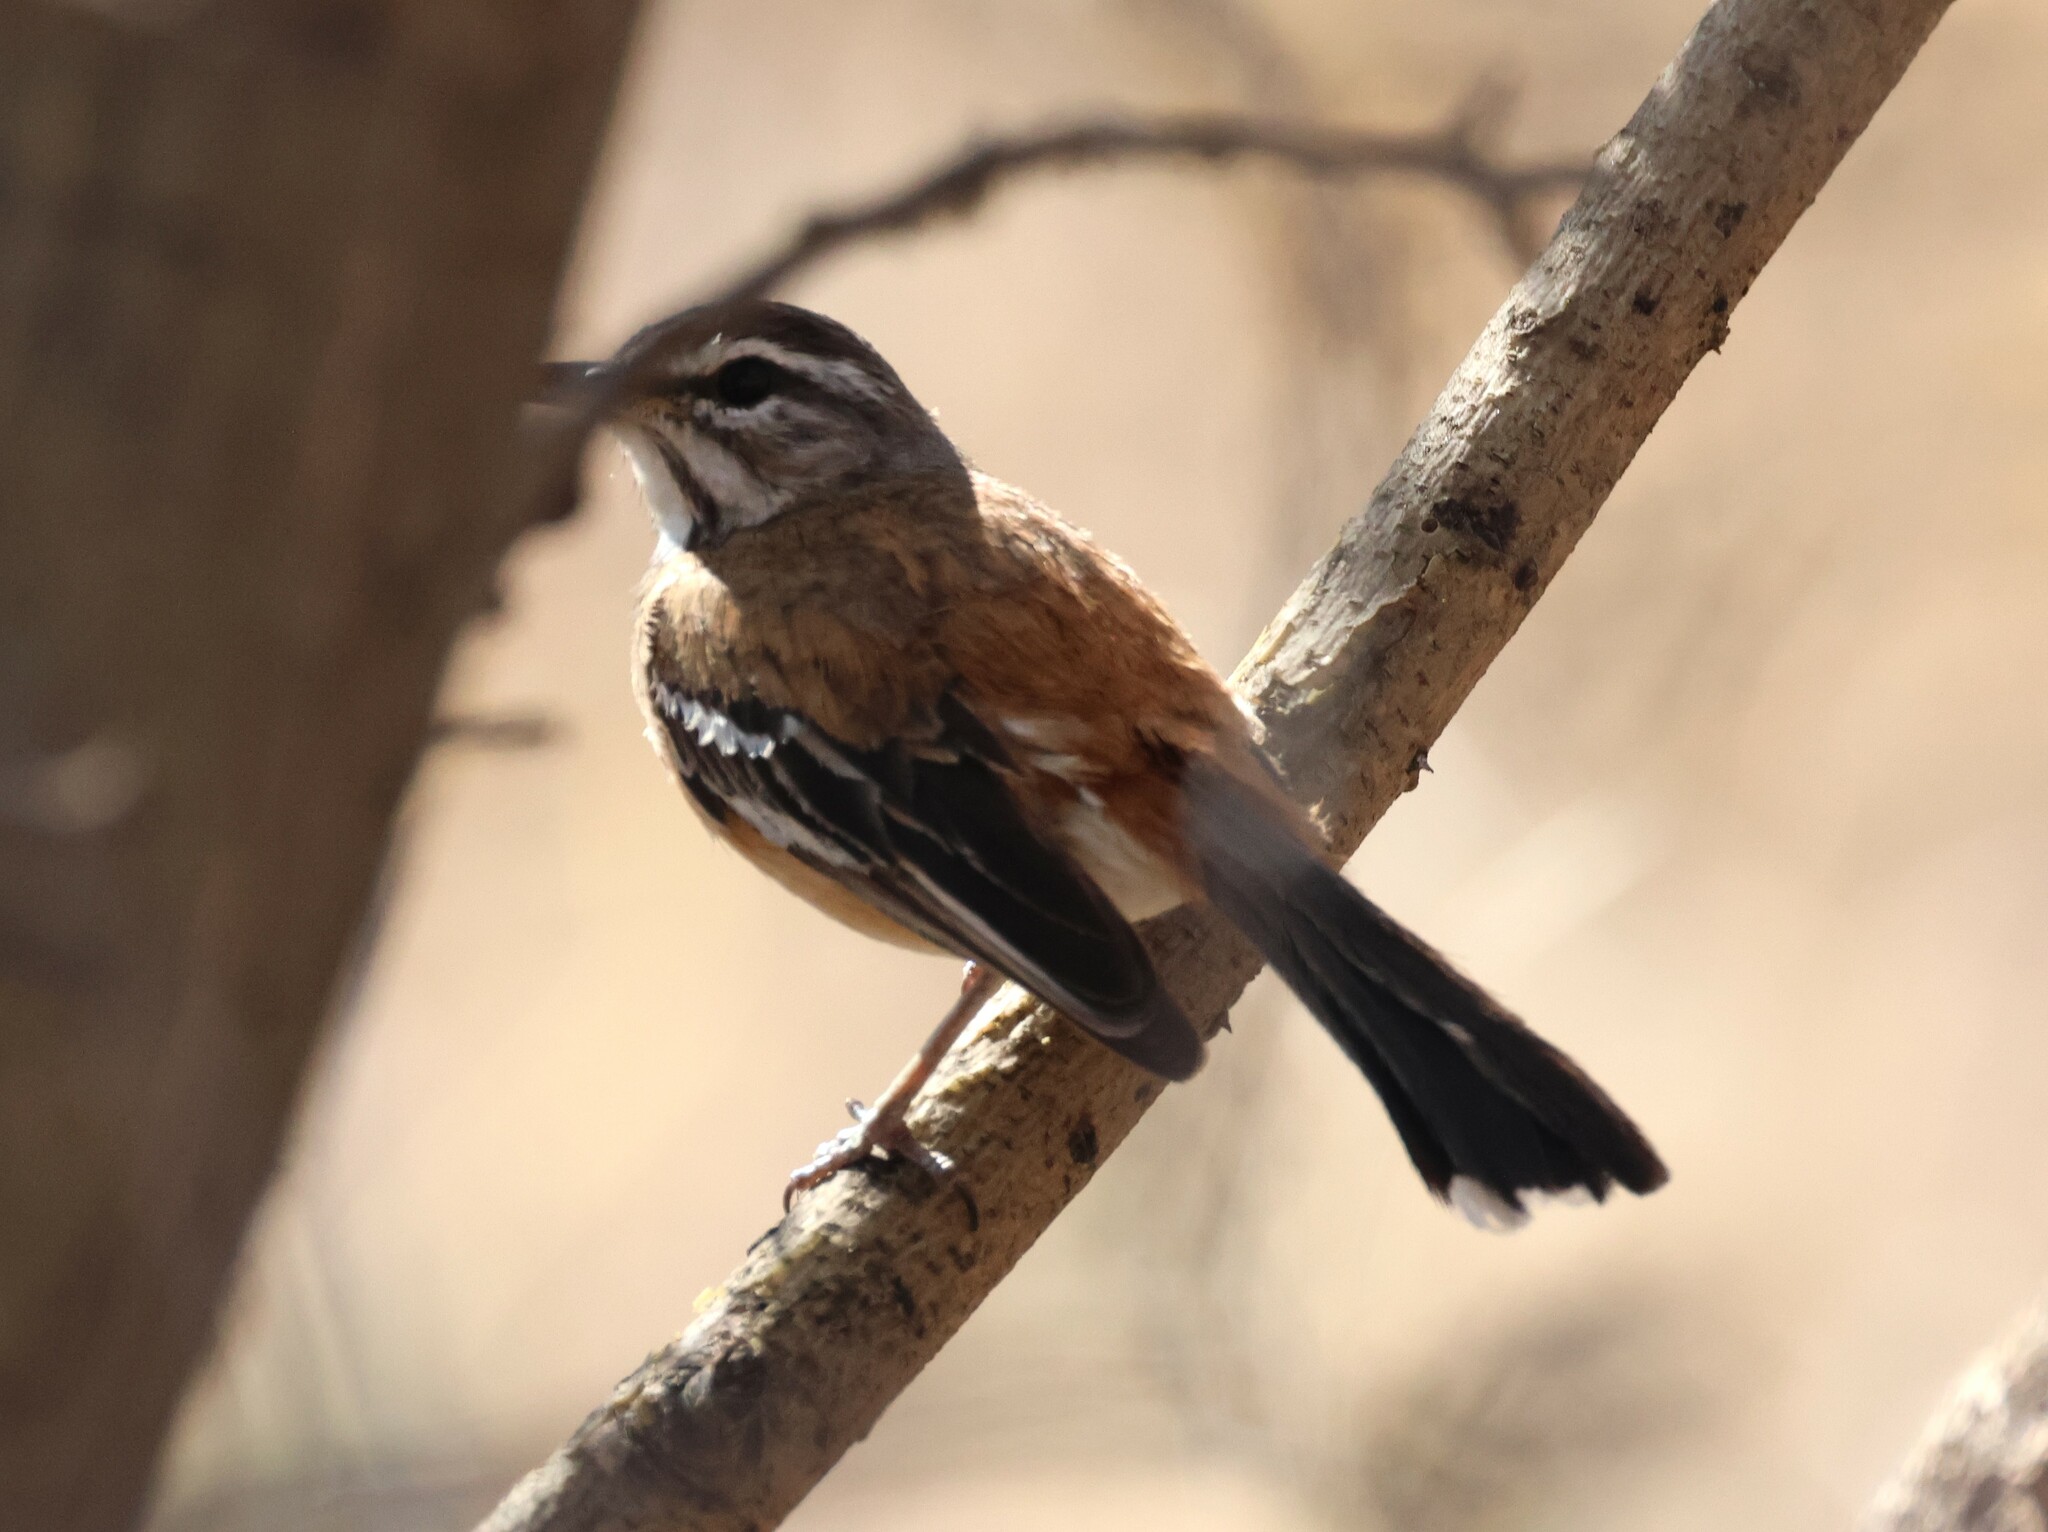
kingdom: Animalia
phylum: Chordata
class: Aves
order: Passeriformes
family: Muscicapidae
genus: Erythropygia
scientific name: Erythropygia leucophrys
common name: White-browed scrub robin
